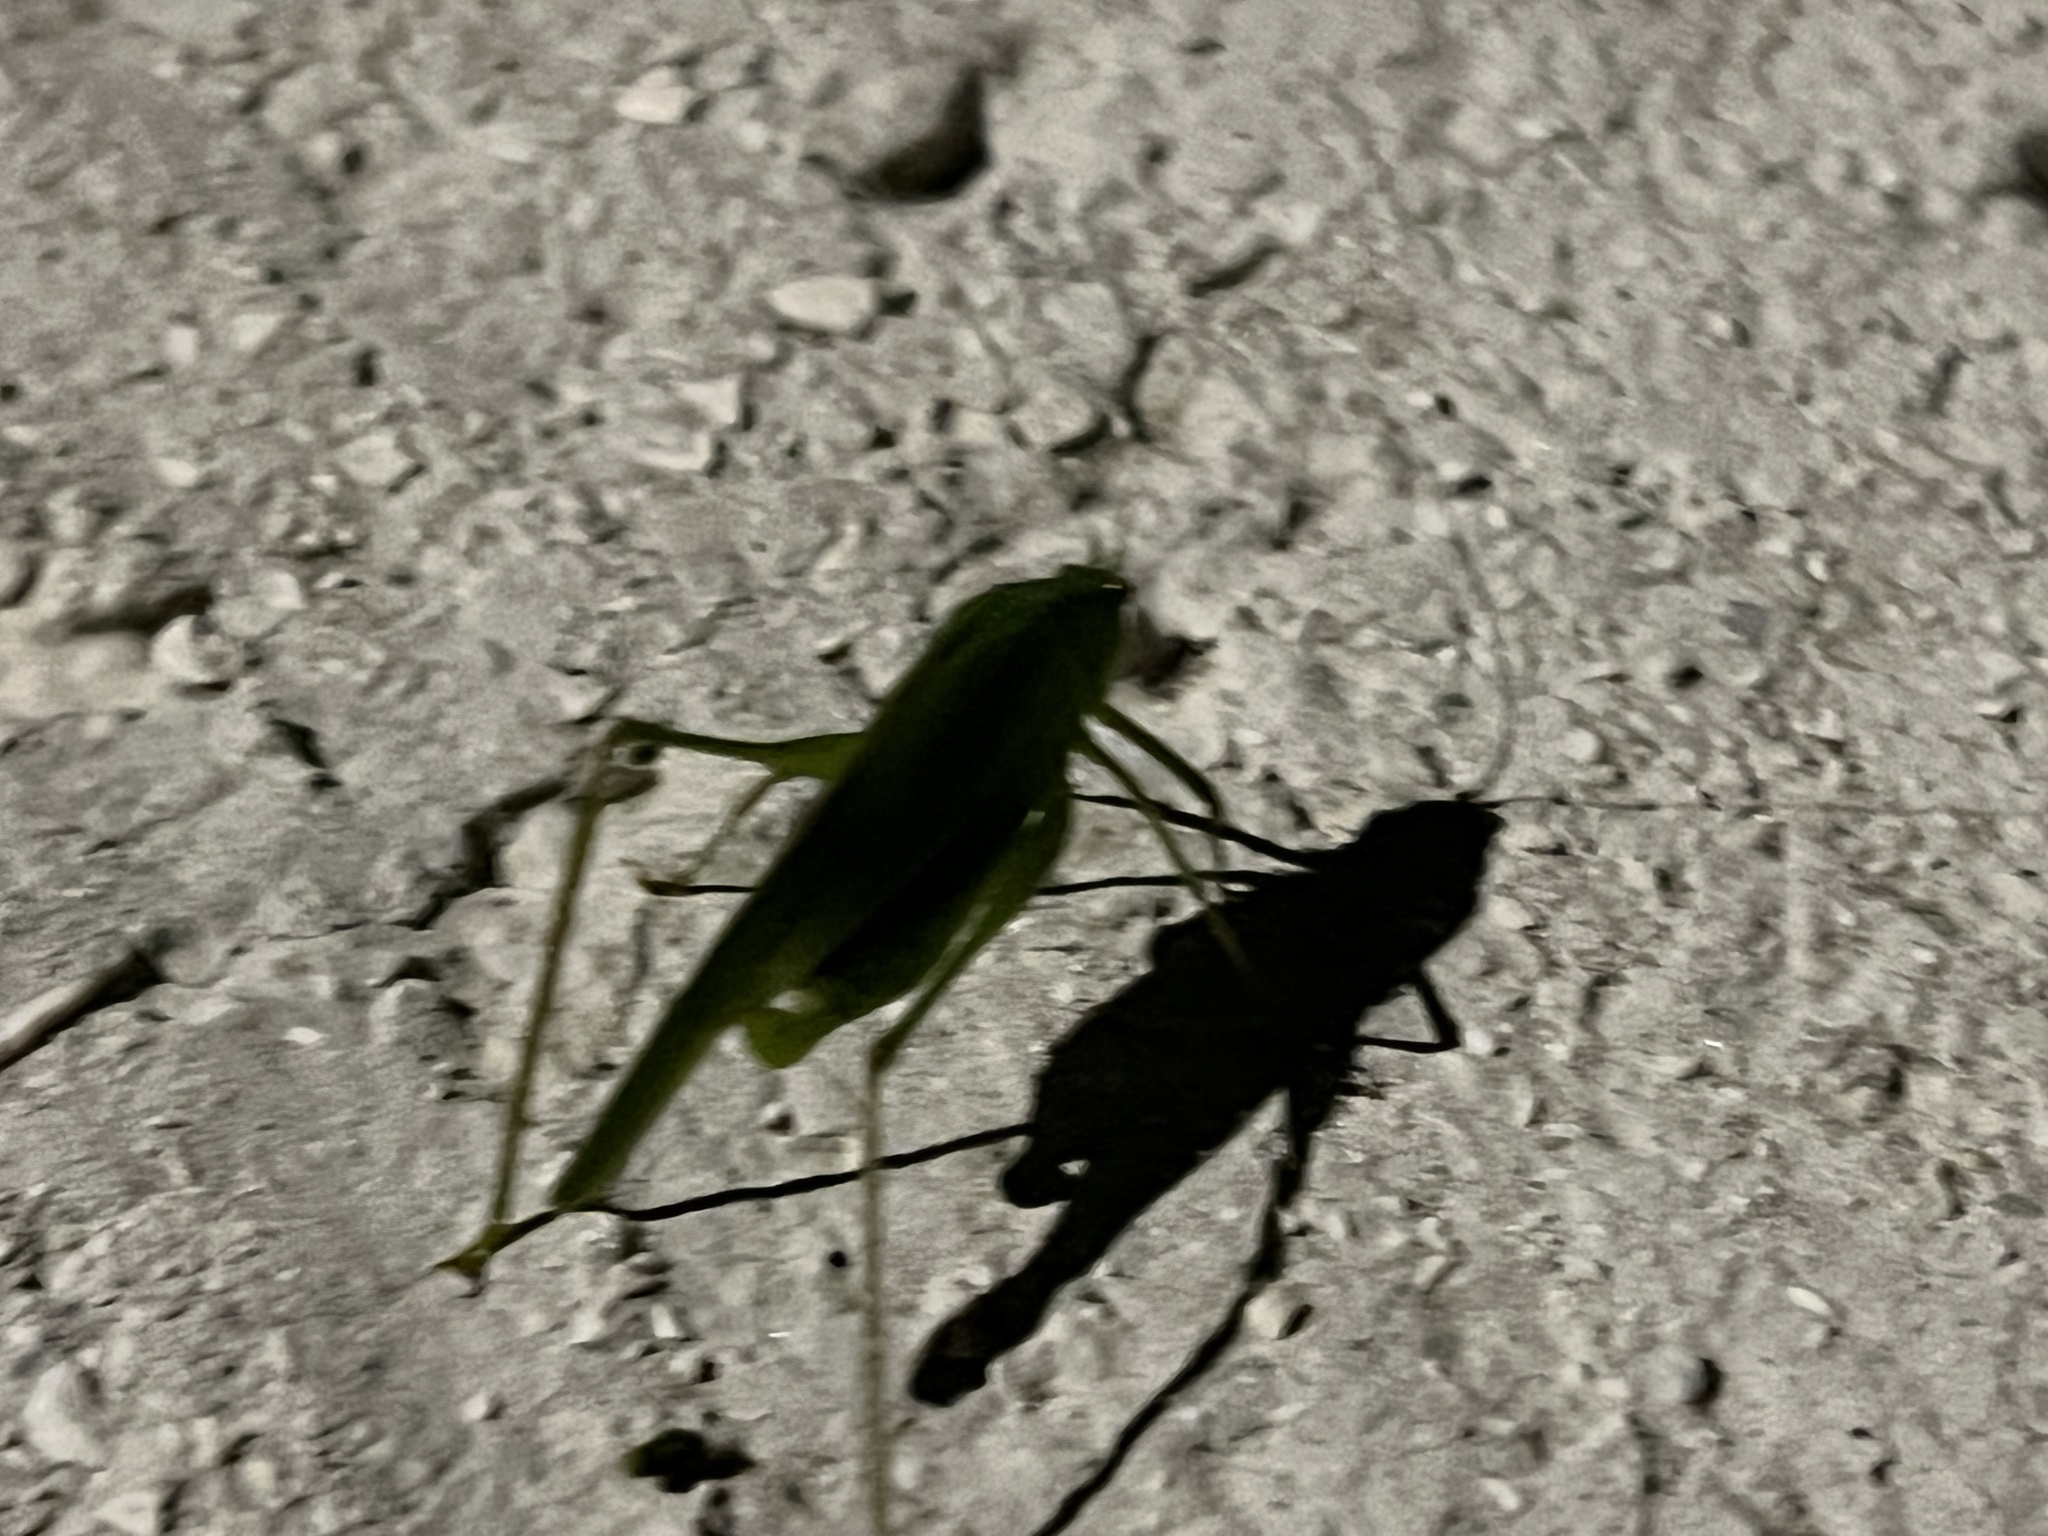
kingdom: Animalia
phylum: Arthropoda
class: Insecta
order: Orthoptera
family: Tettigoniidae
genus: Phaneroptera
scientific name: Phaneroptera nana
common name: Southern sickle bush-cricket
